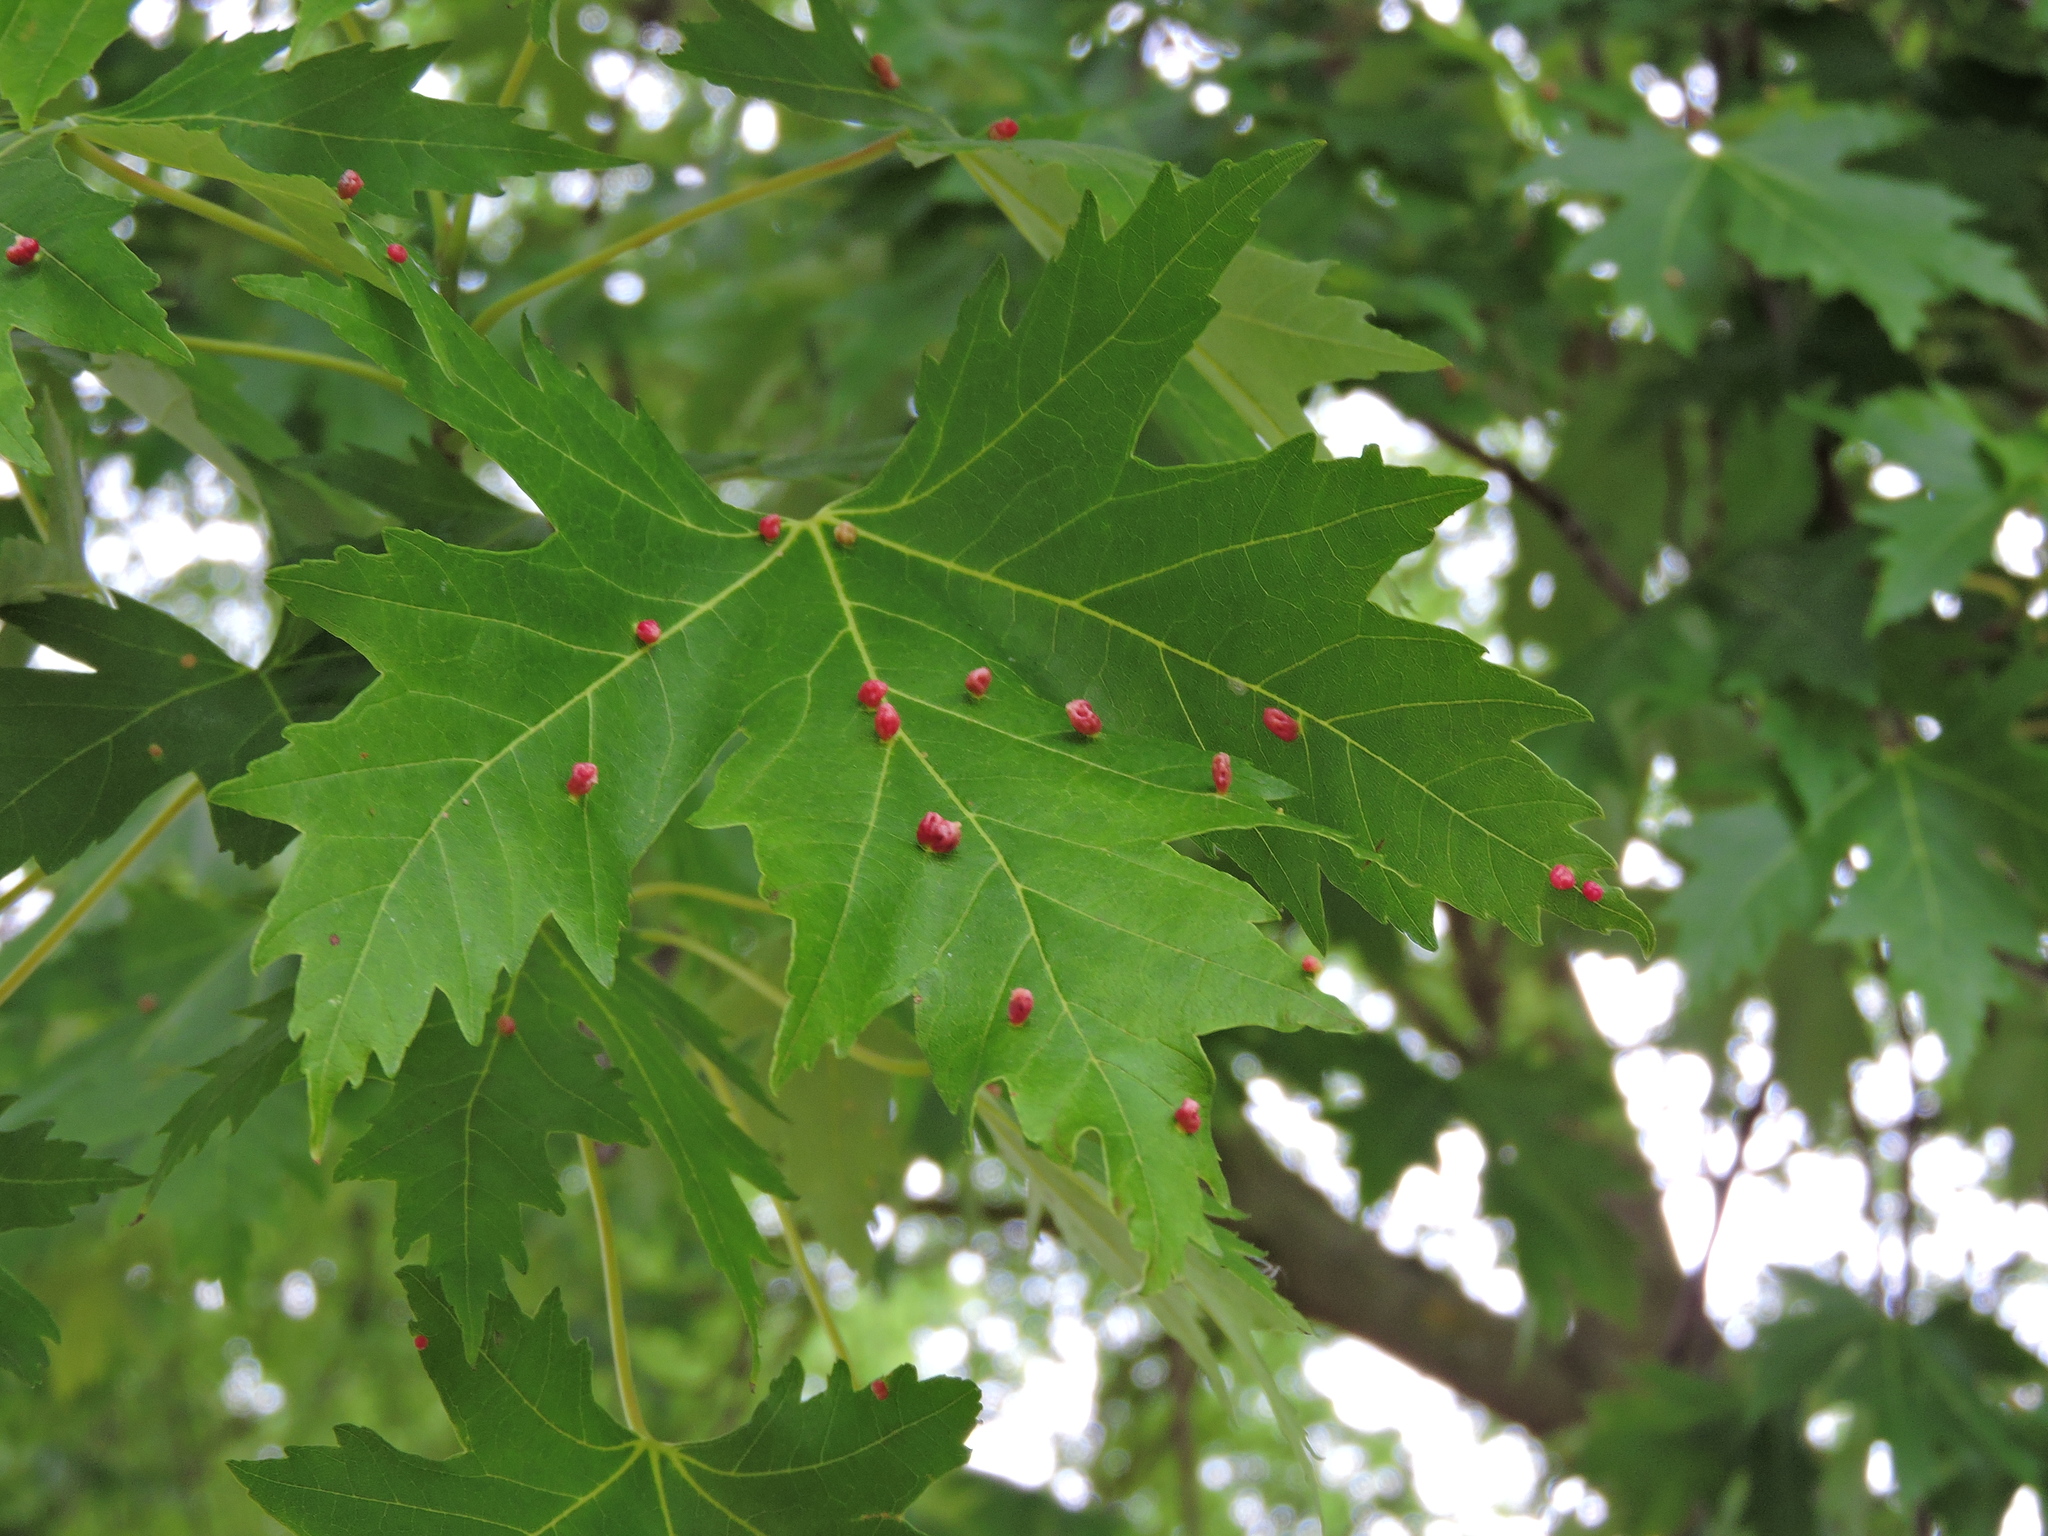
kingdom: Animalia
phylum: Arthropoda
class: Arachnida
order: Trombidiformes
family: Eriophyidae
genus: Vasates
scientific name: Vasates quadripedes
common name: Maple bladder gall mite
